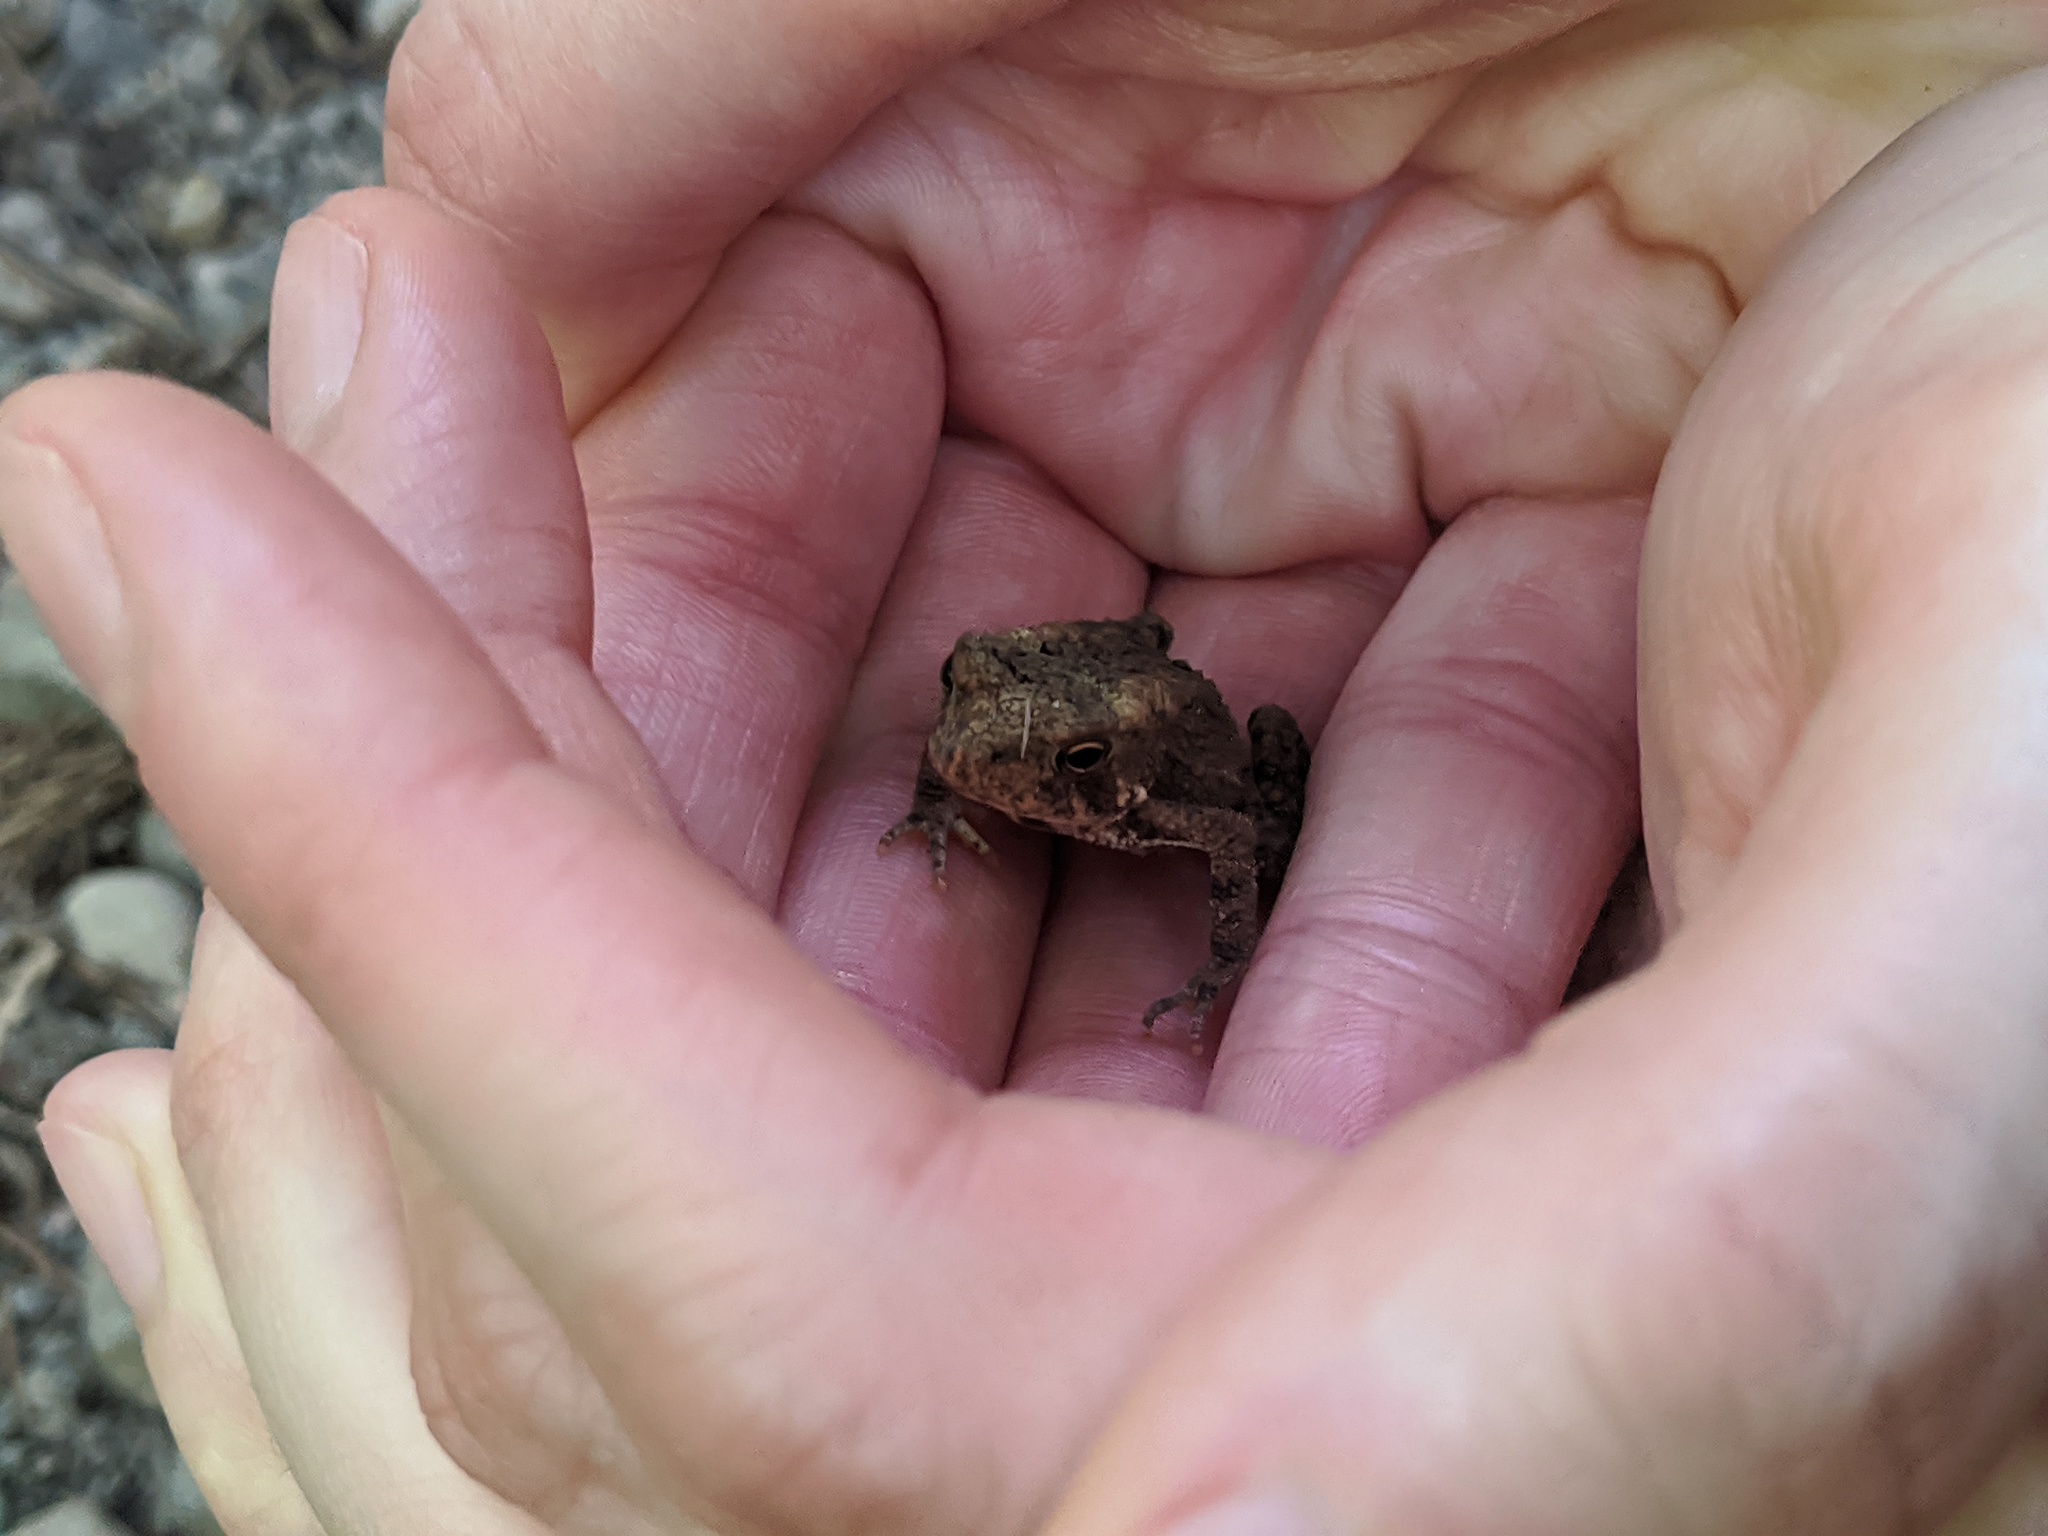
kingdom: Animalia
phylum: Chordata
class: Amphibia
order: Anura
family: Bufonidae
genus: Anaxyrus
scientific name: Anaxyrus americanus
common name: American toad
